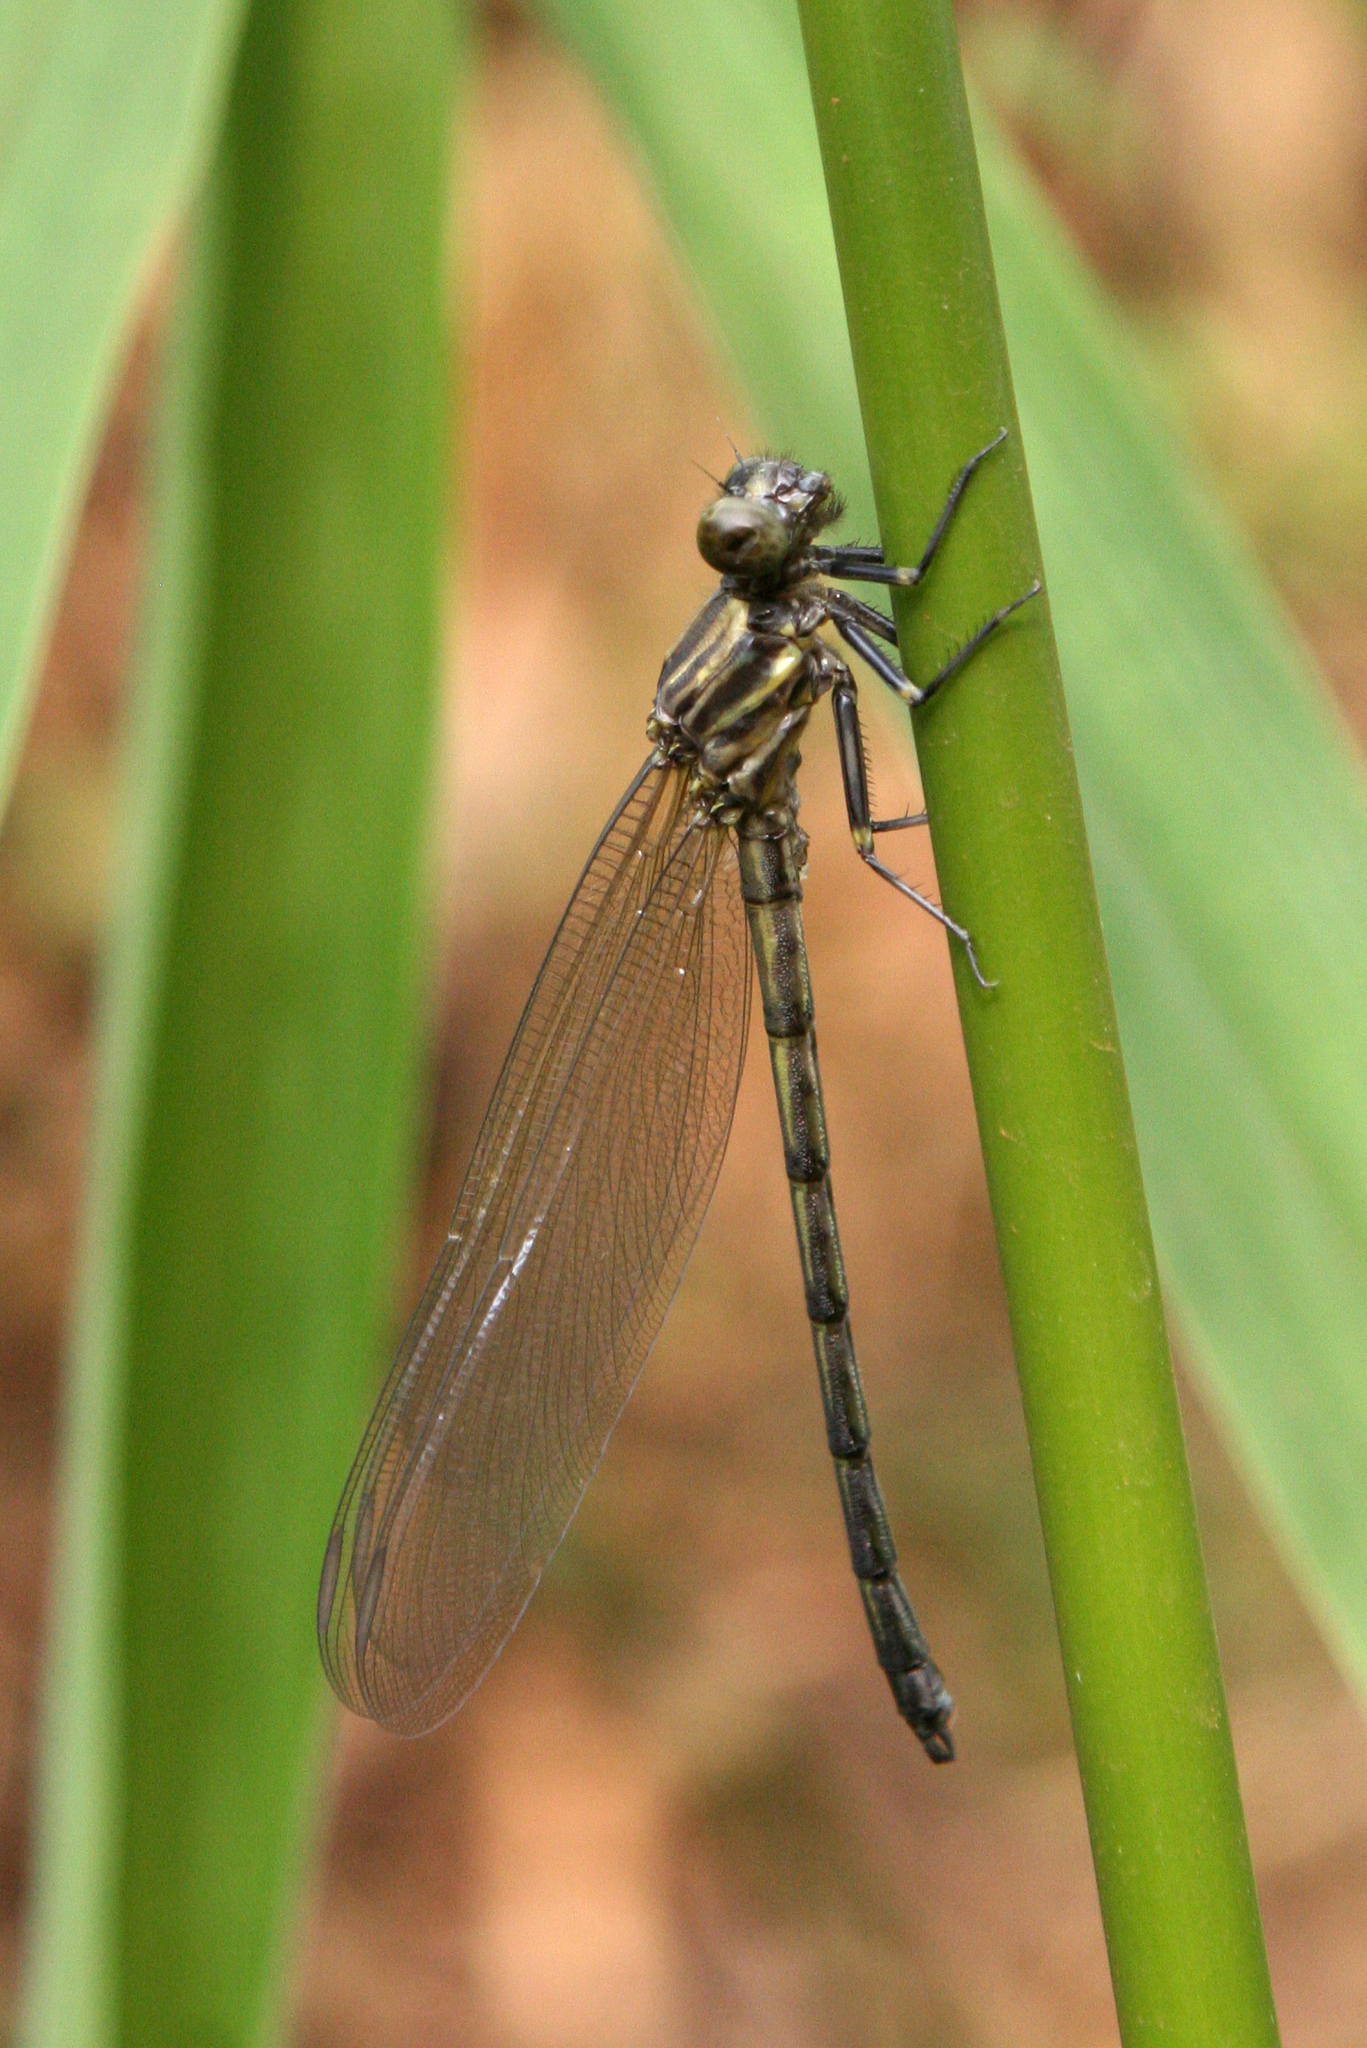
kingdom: Animalia
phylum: Arthropoda
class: Insecta
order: Odonata
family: Euphaeidae
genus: Dysphaea
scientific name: Dysphaea gloriosa
